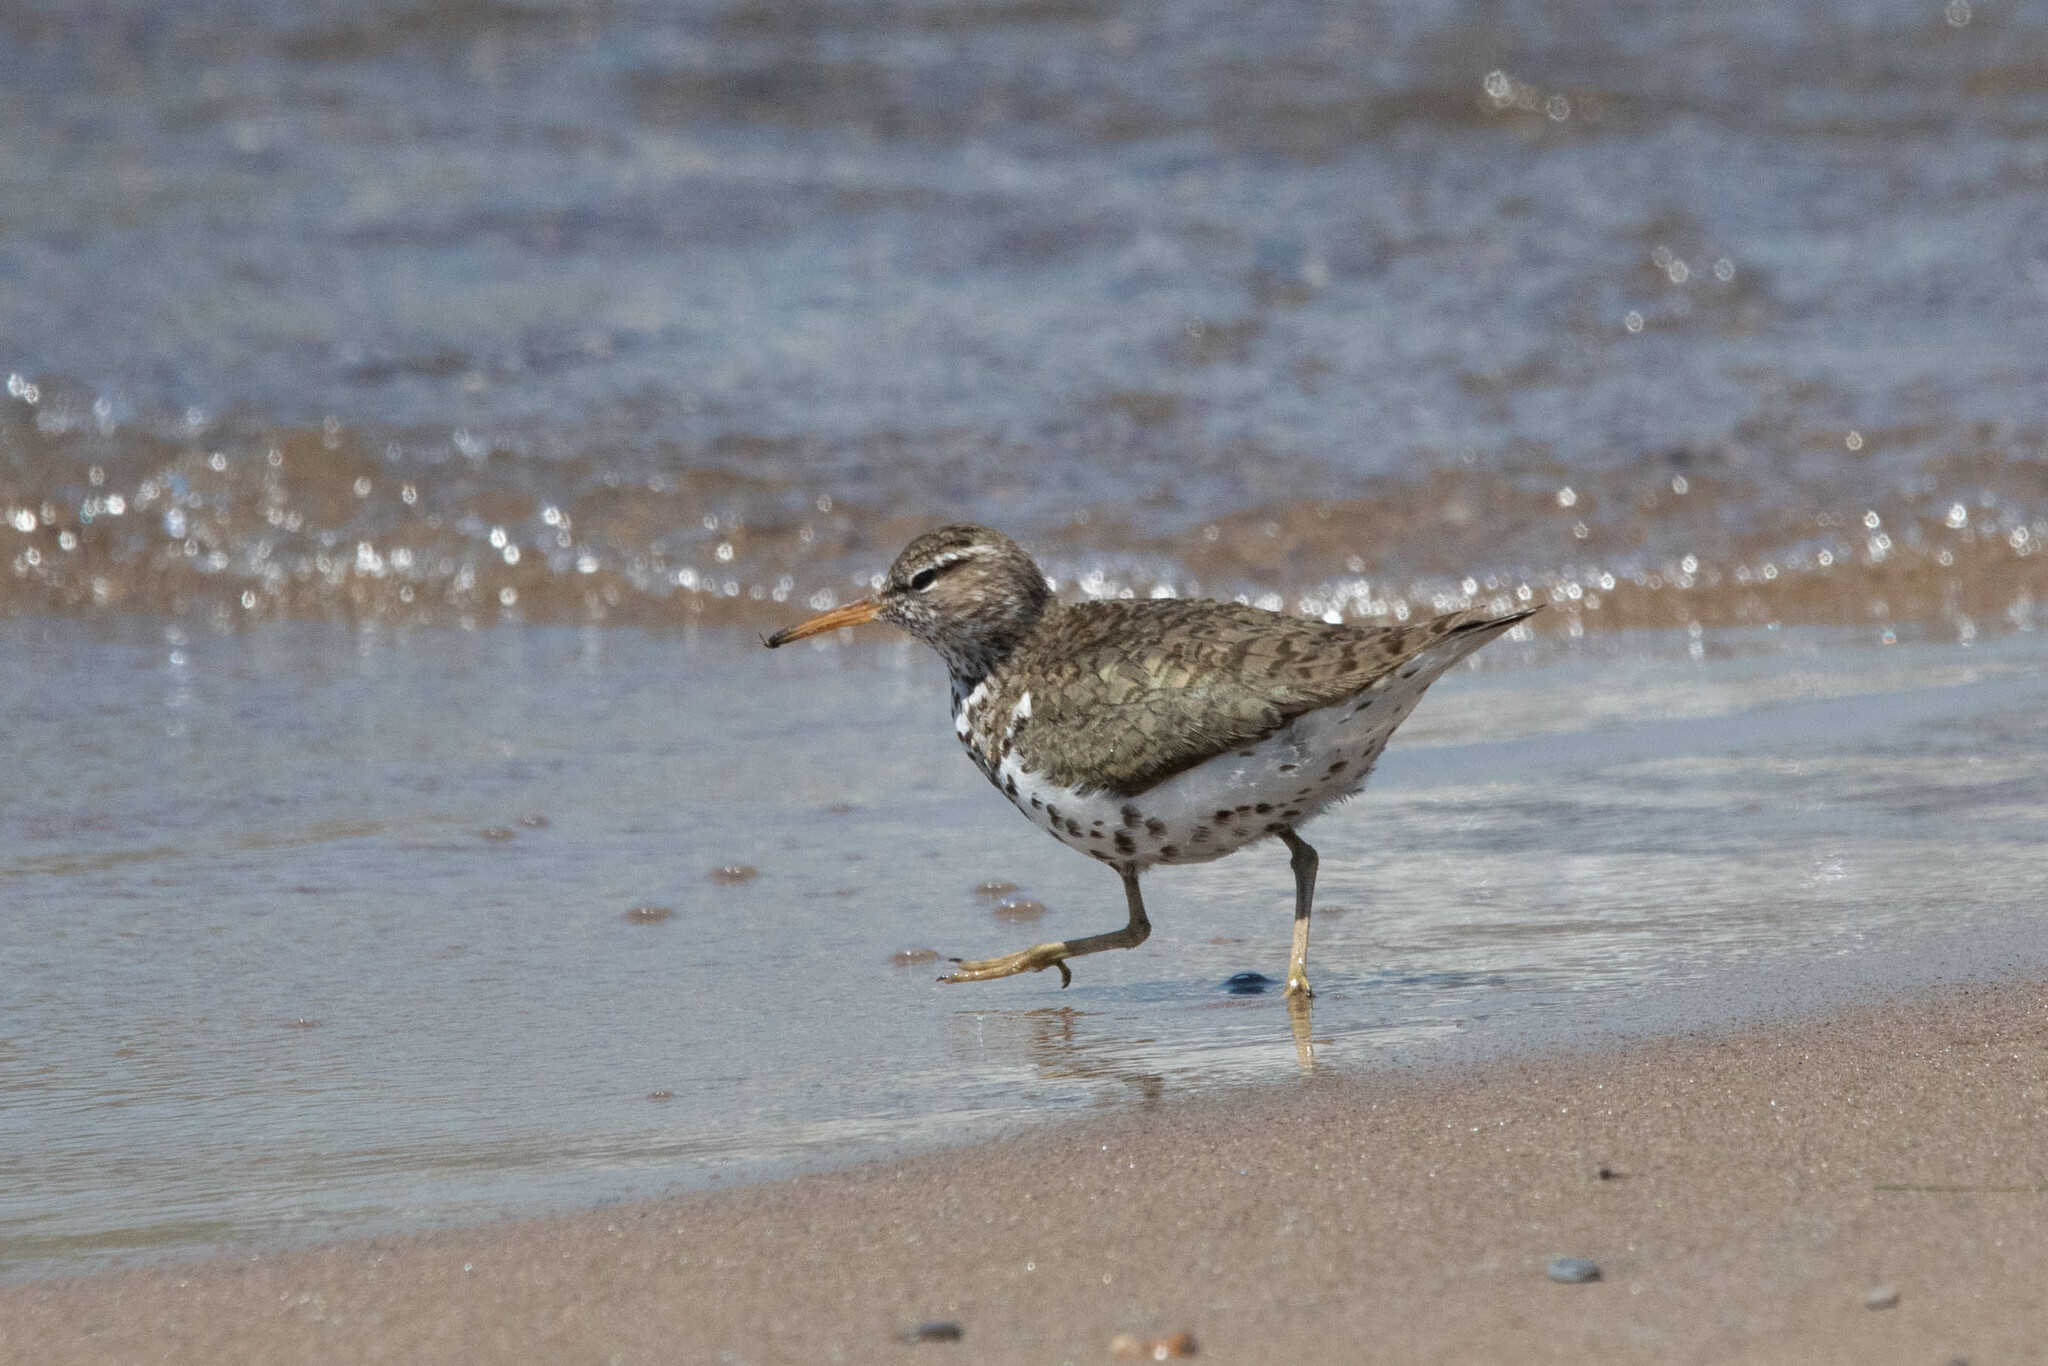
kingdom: Animalia
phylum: Chordata
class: Aves
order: Charadriiformes
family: Scolopacidae
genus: Actitis
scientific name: Actitis macularius
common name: Spotted sandpiper
